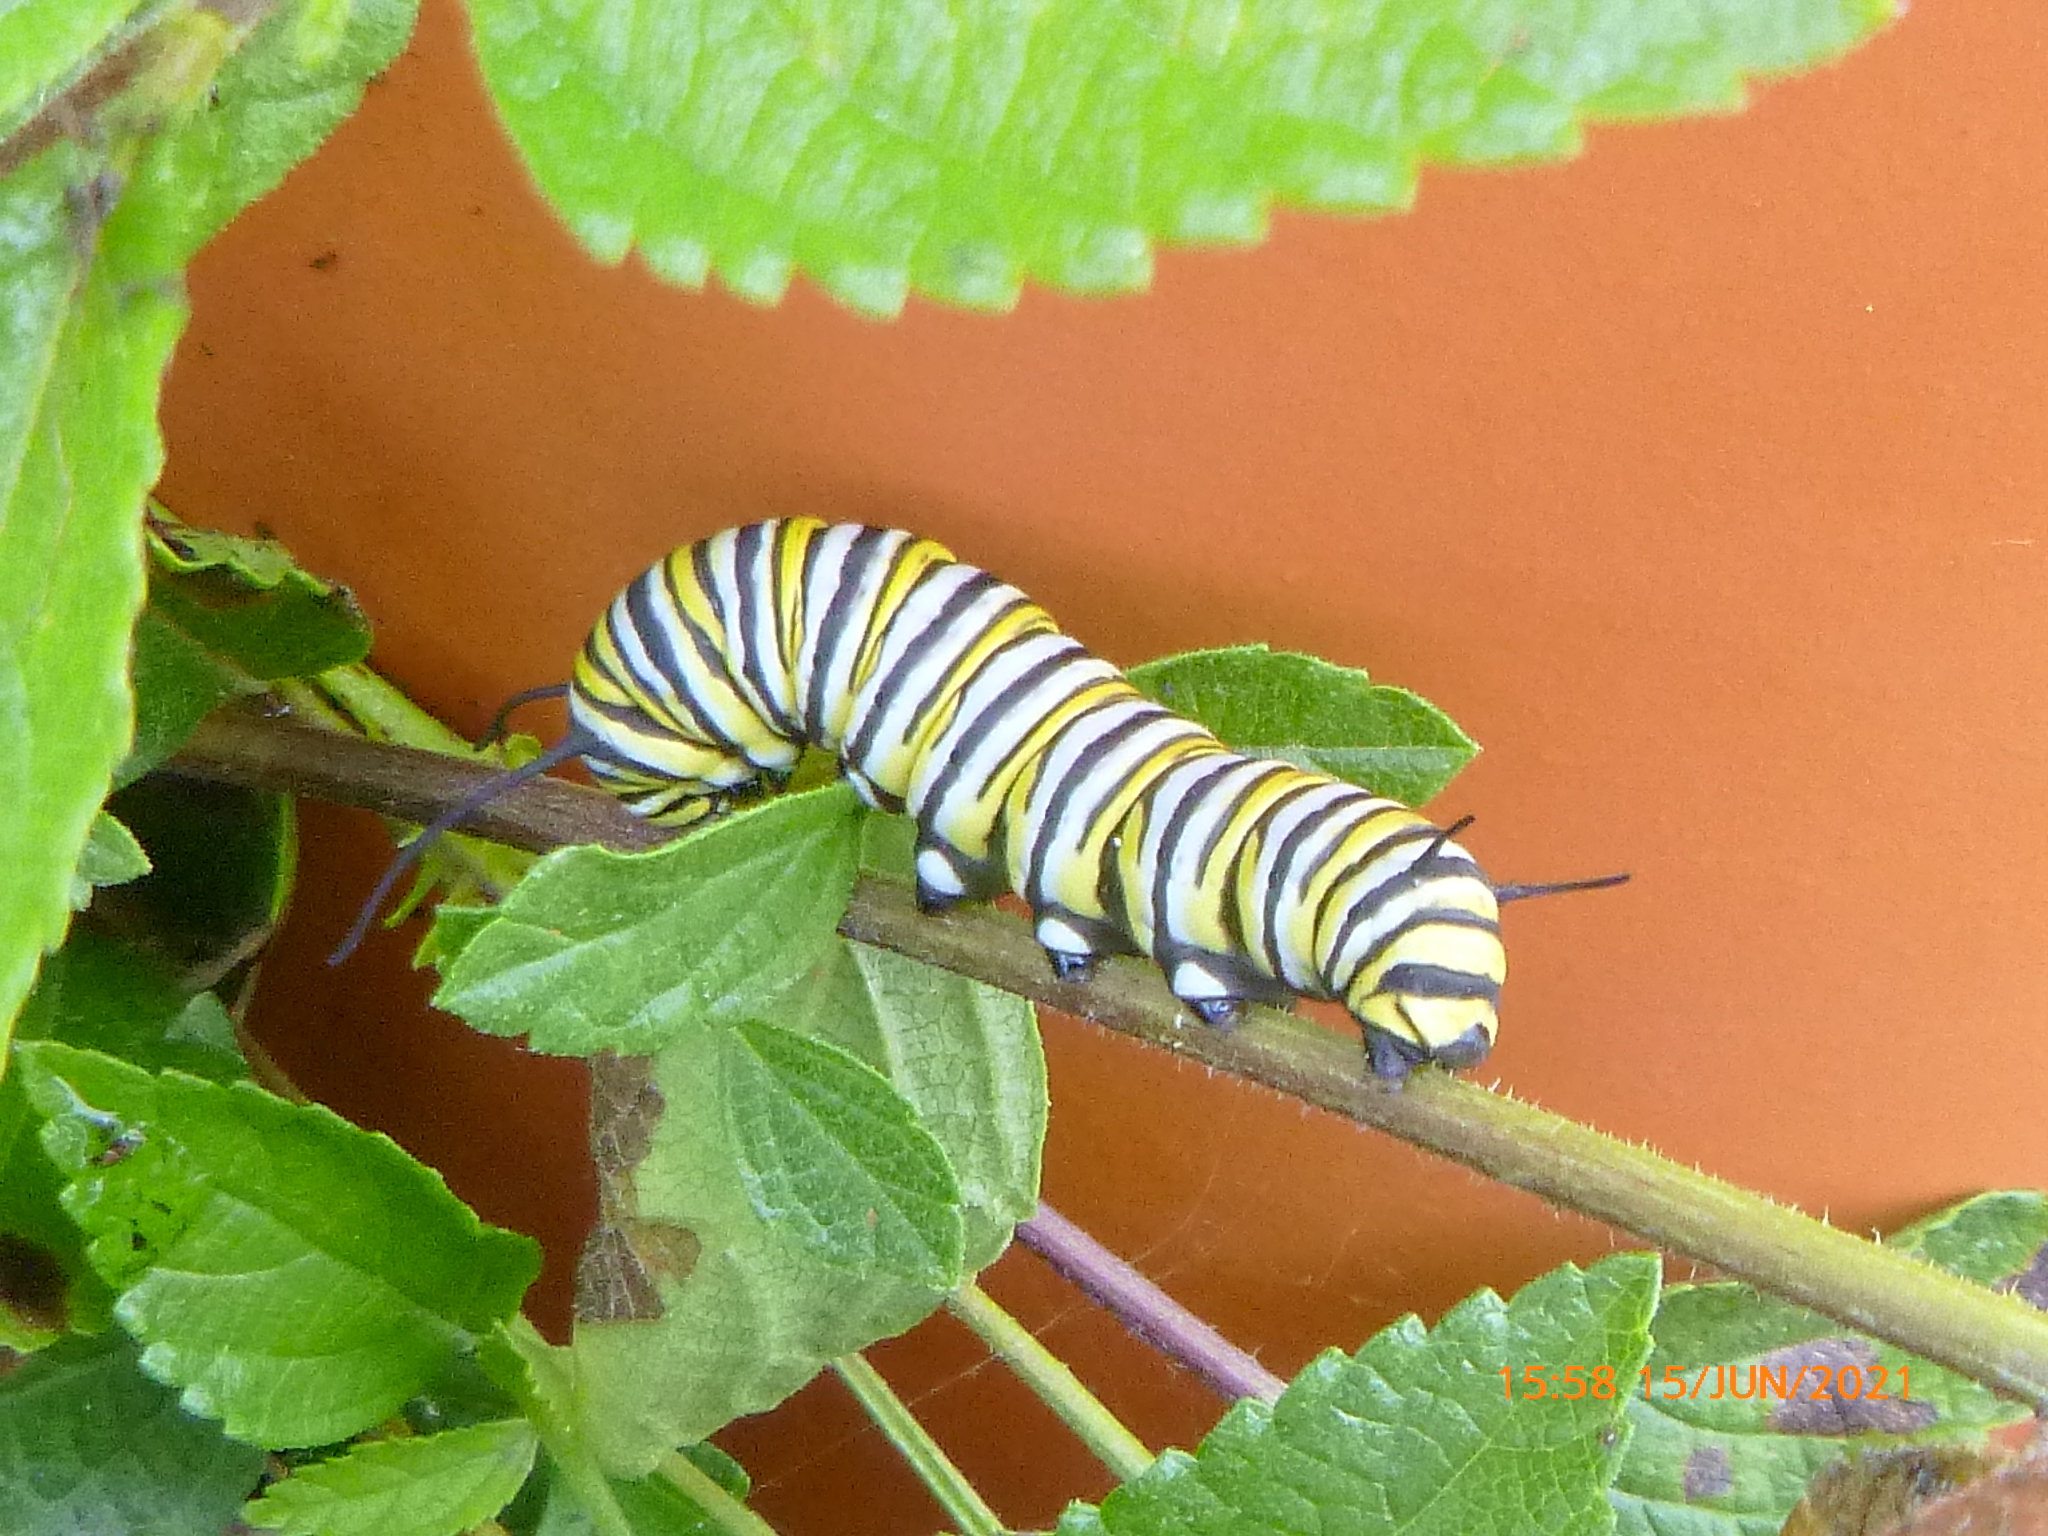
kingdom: Animalia
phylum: Arthropoda
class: Insecta
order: Lepidoptera
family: Nymphalidae
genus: Danaus
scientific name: Danaus plexippus
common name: Monarch
